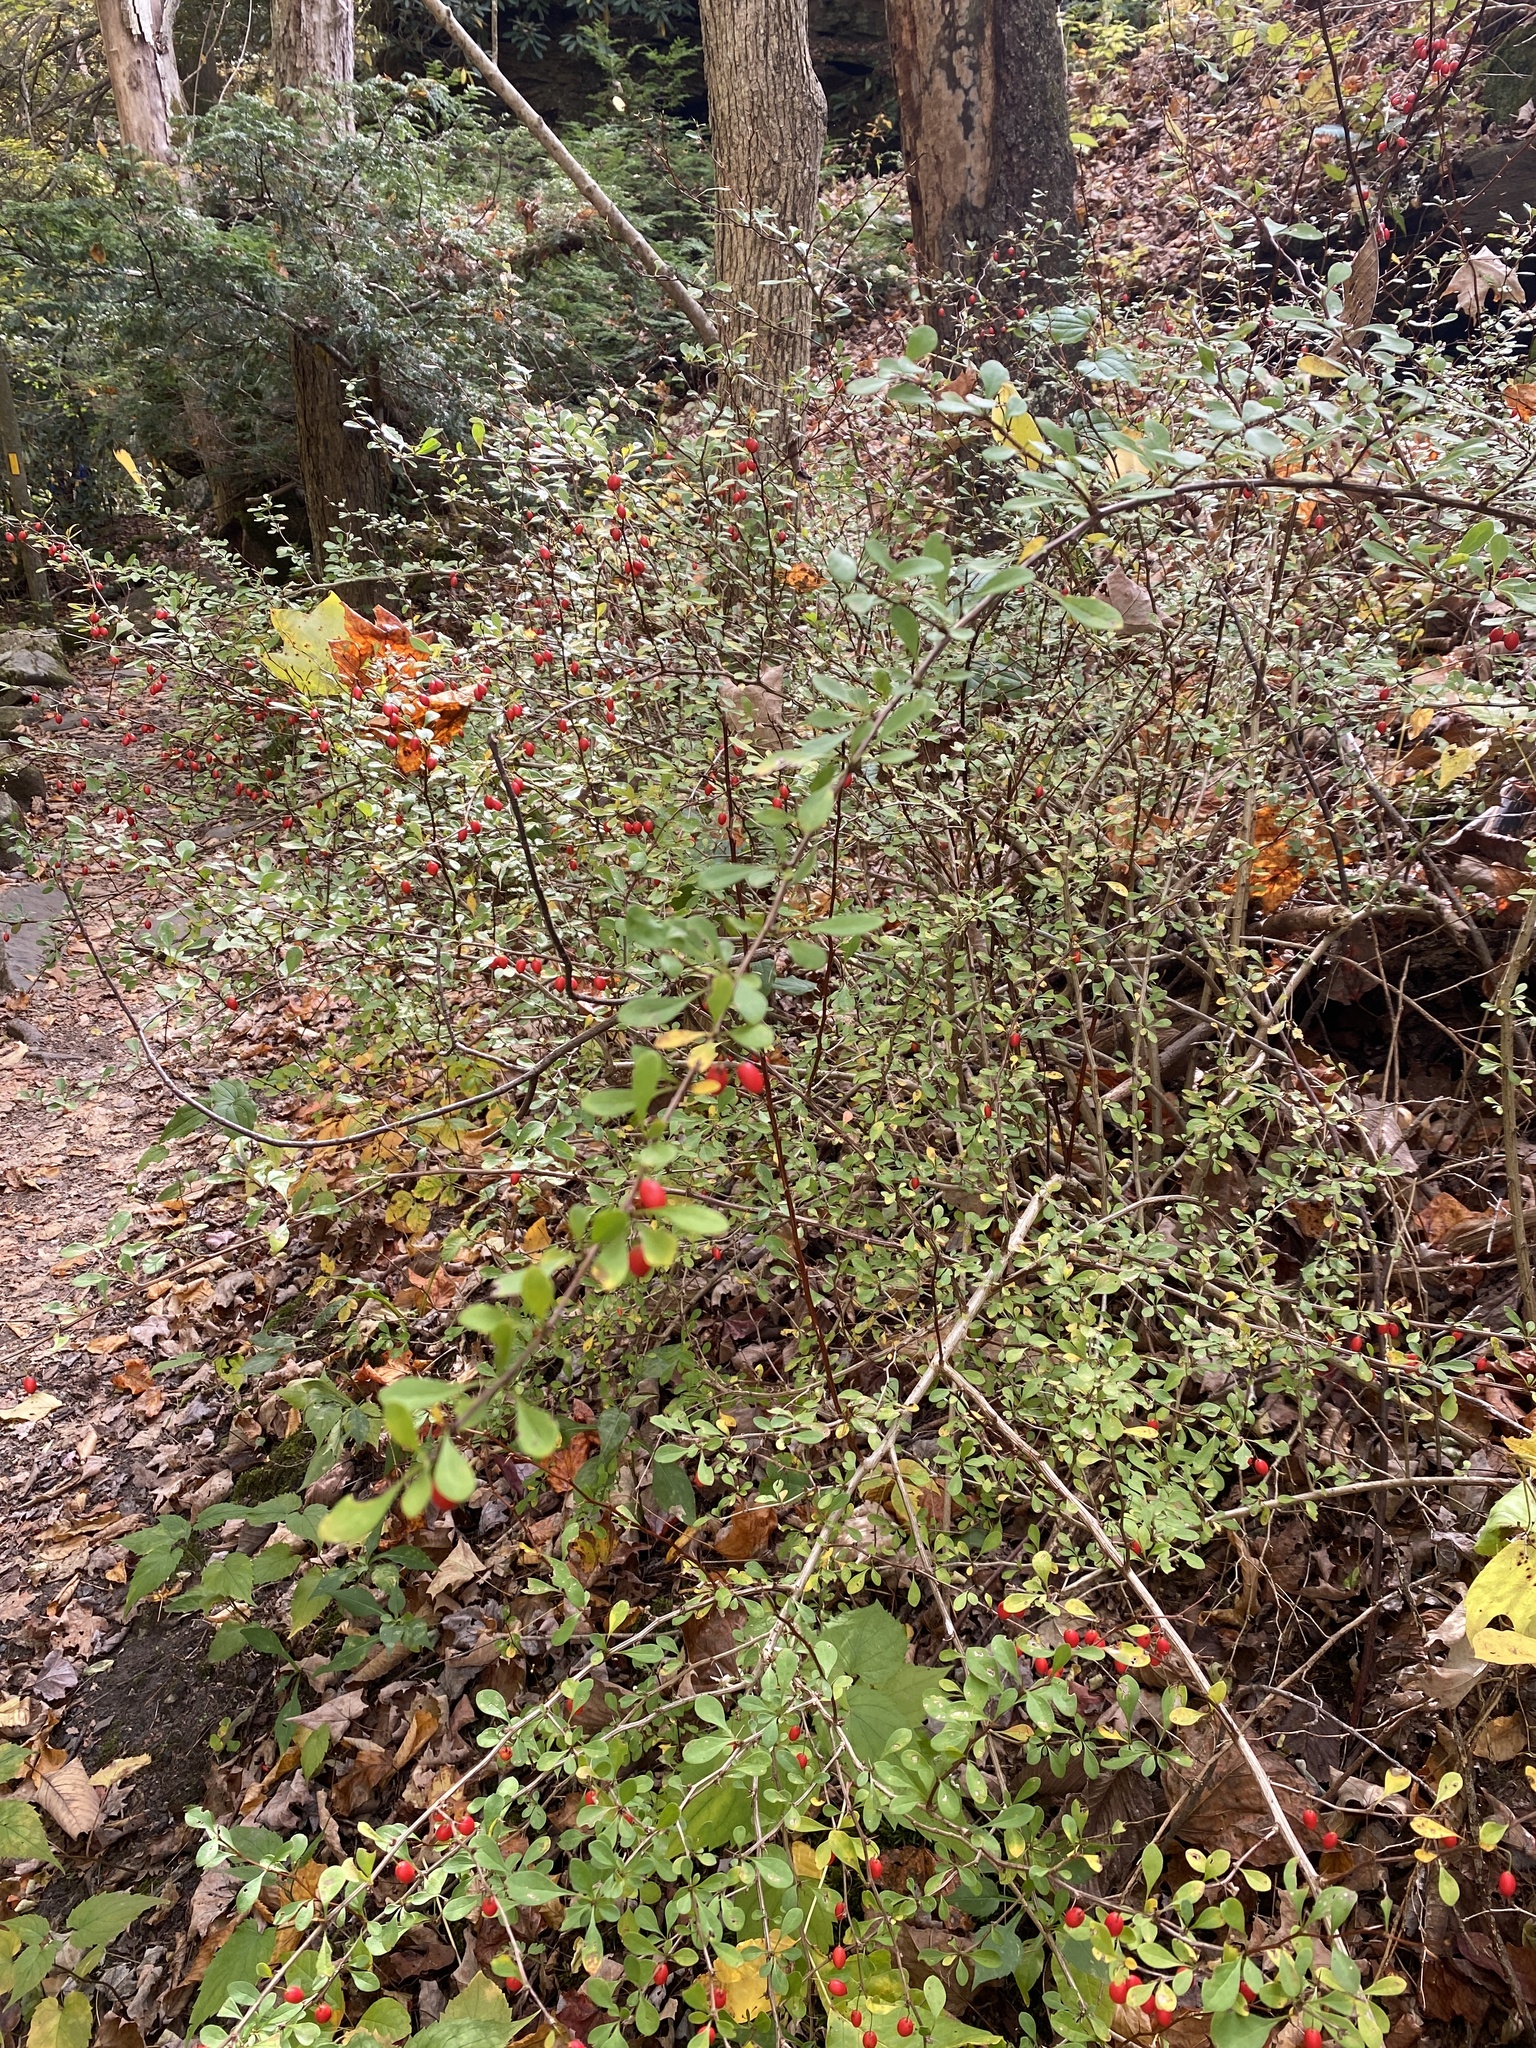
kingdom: Plantae
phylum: Tracheophyta
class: Magnoliopsida
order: Ranunculales
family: Berberidaceae
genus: Berberis
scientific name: Berberis thunbergii
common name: Japanese barberry
